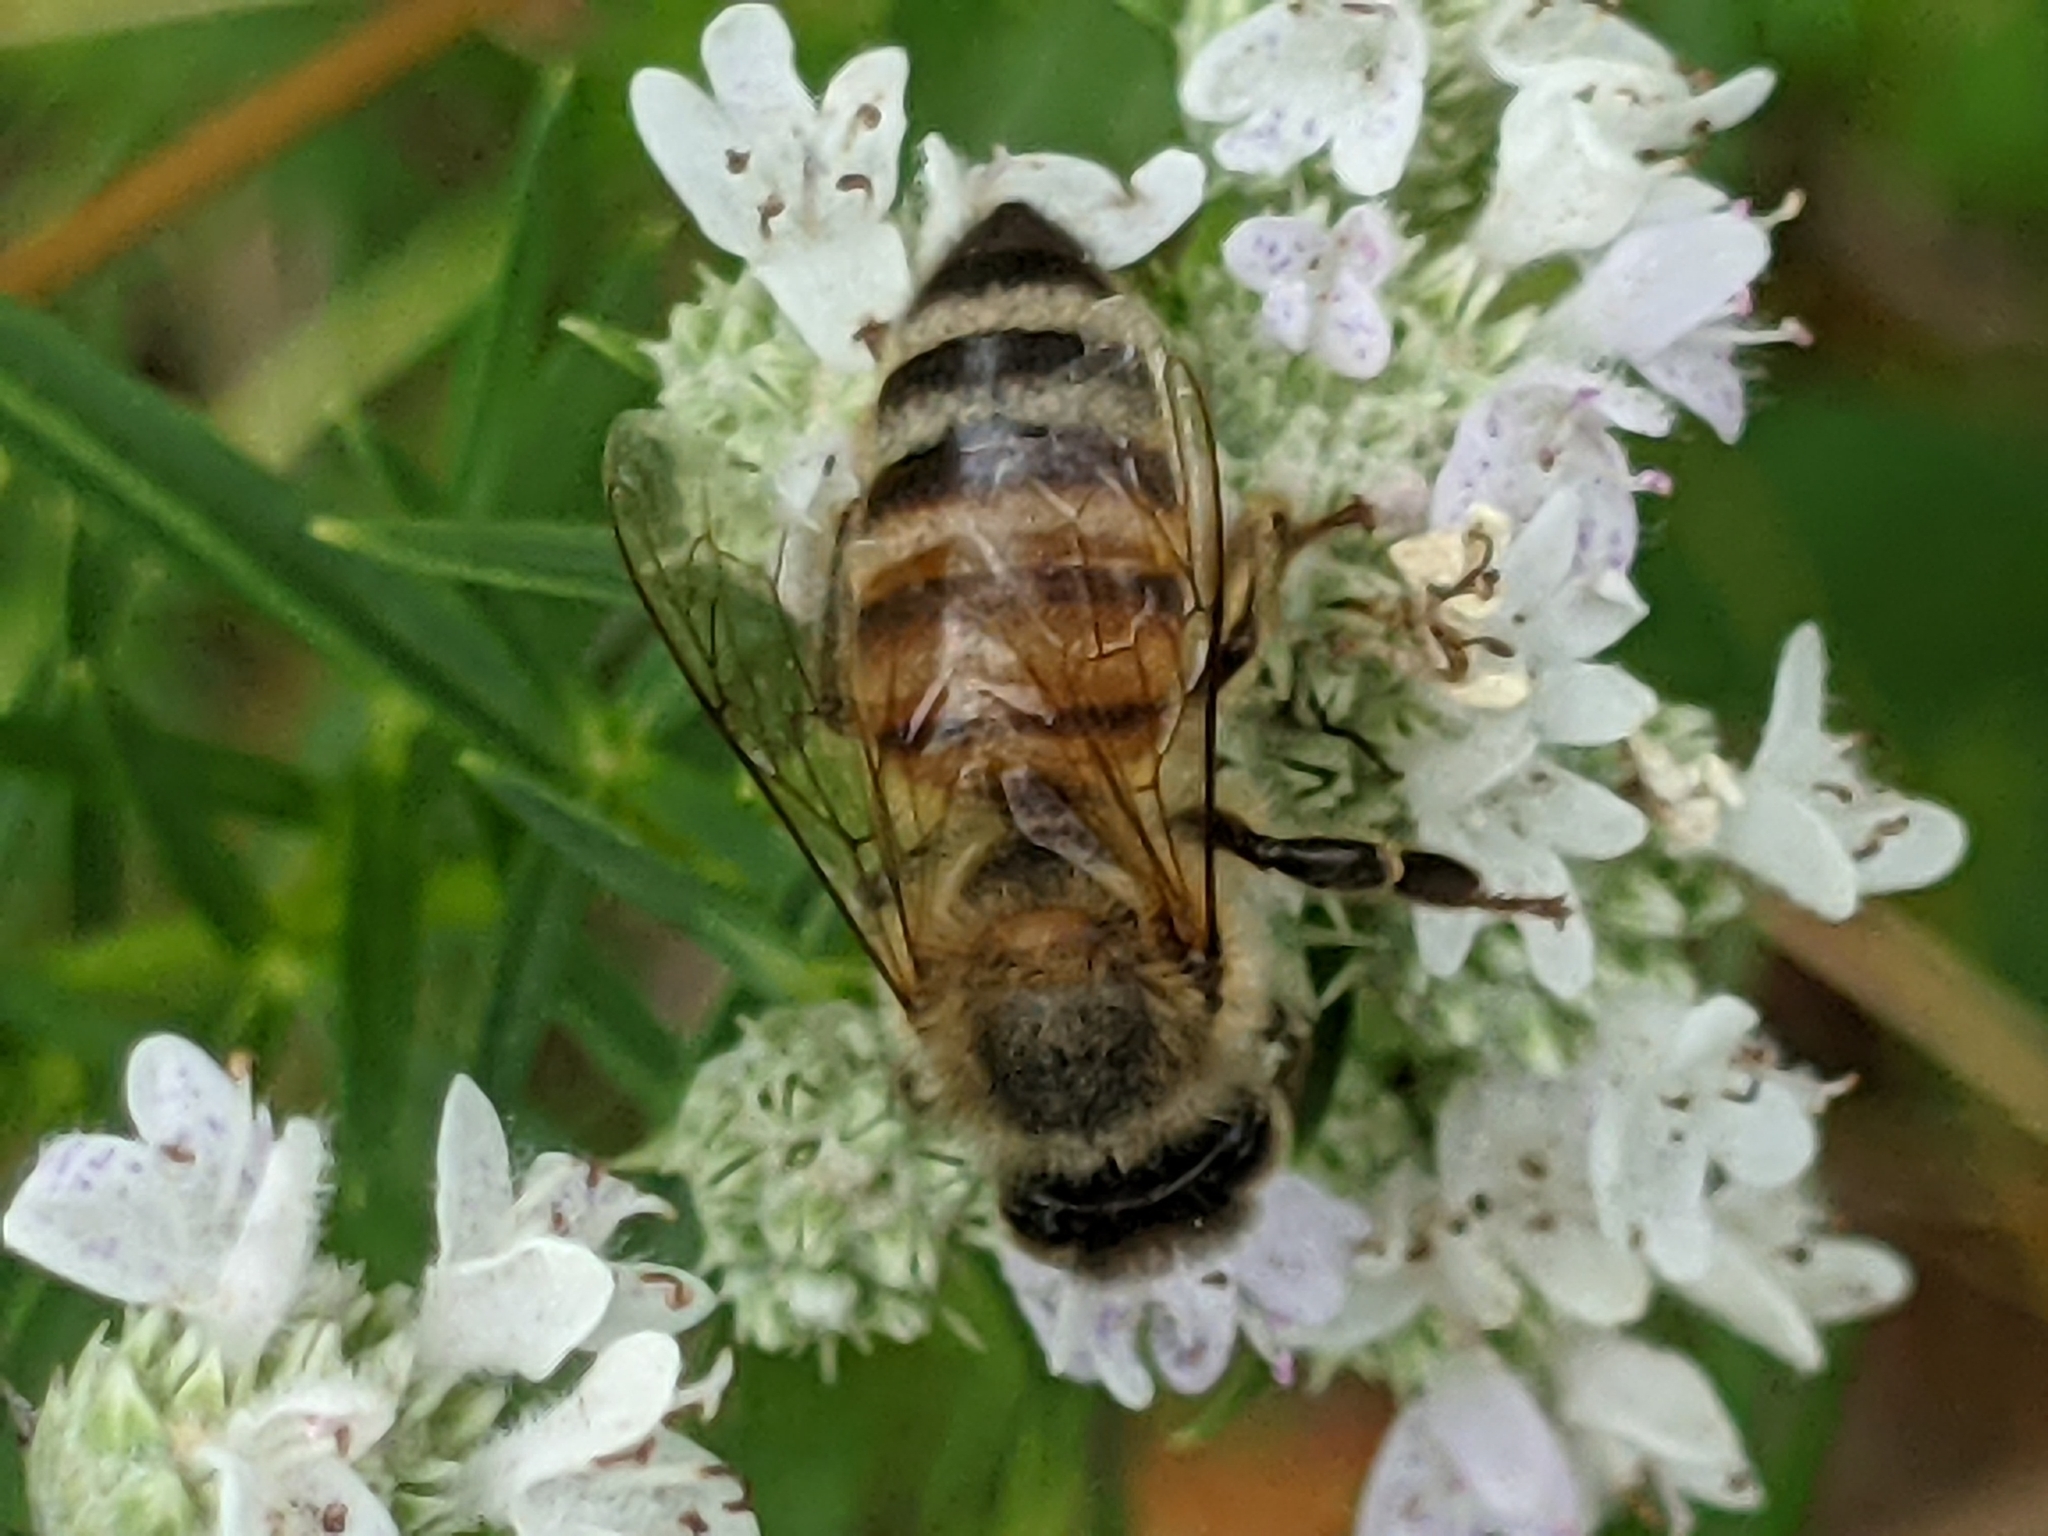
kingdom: Animalia
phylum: Arthropoda
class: Insecta
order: Hymenoptera
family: Apidae
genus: Apis
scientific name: Apis mellifera
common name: Honey bee
